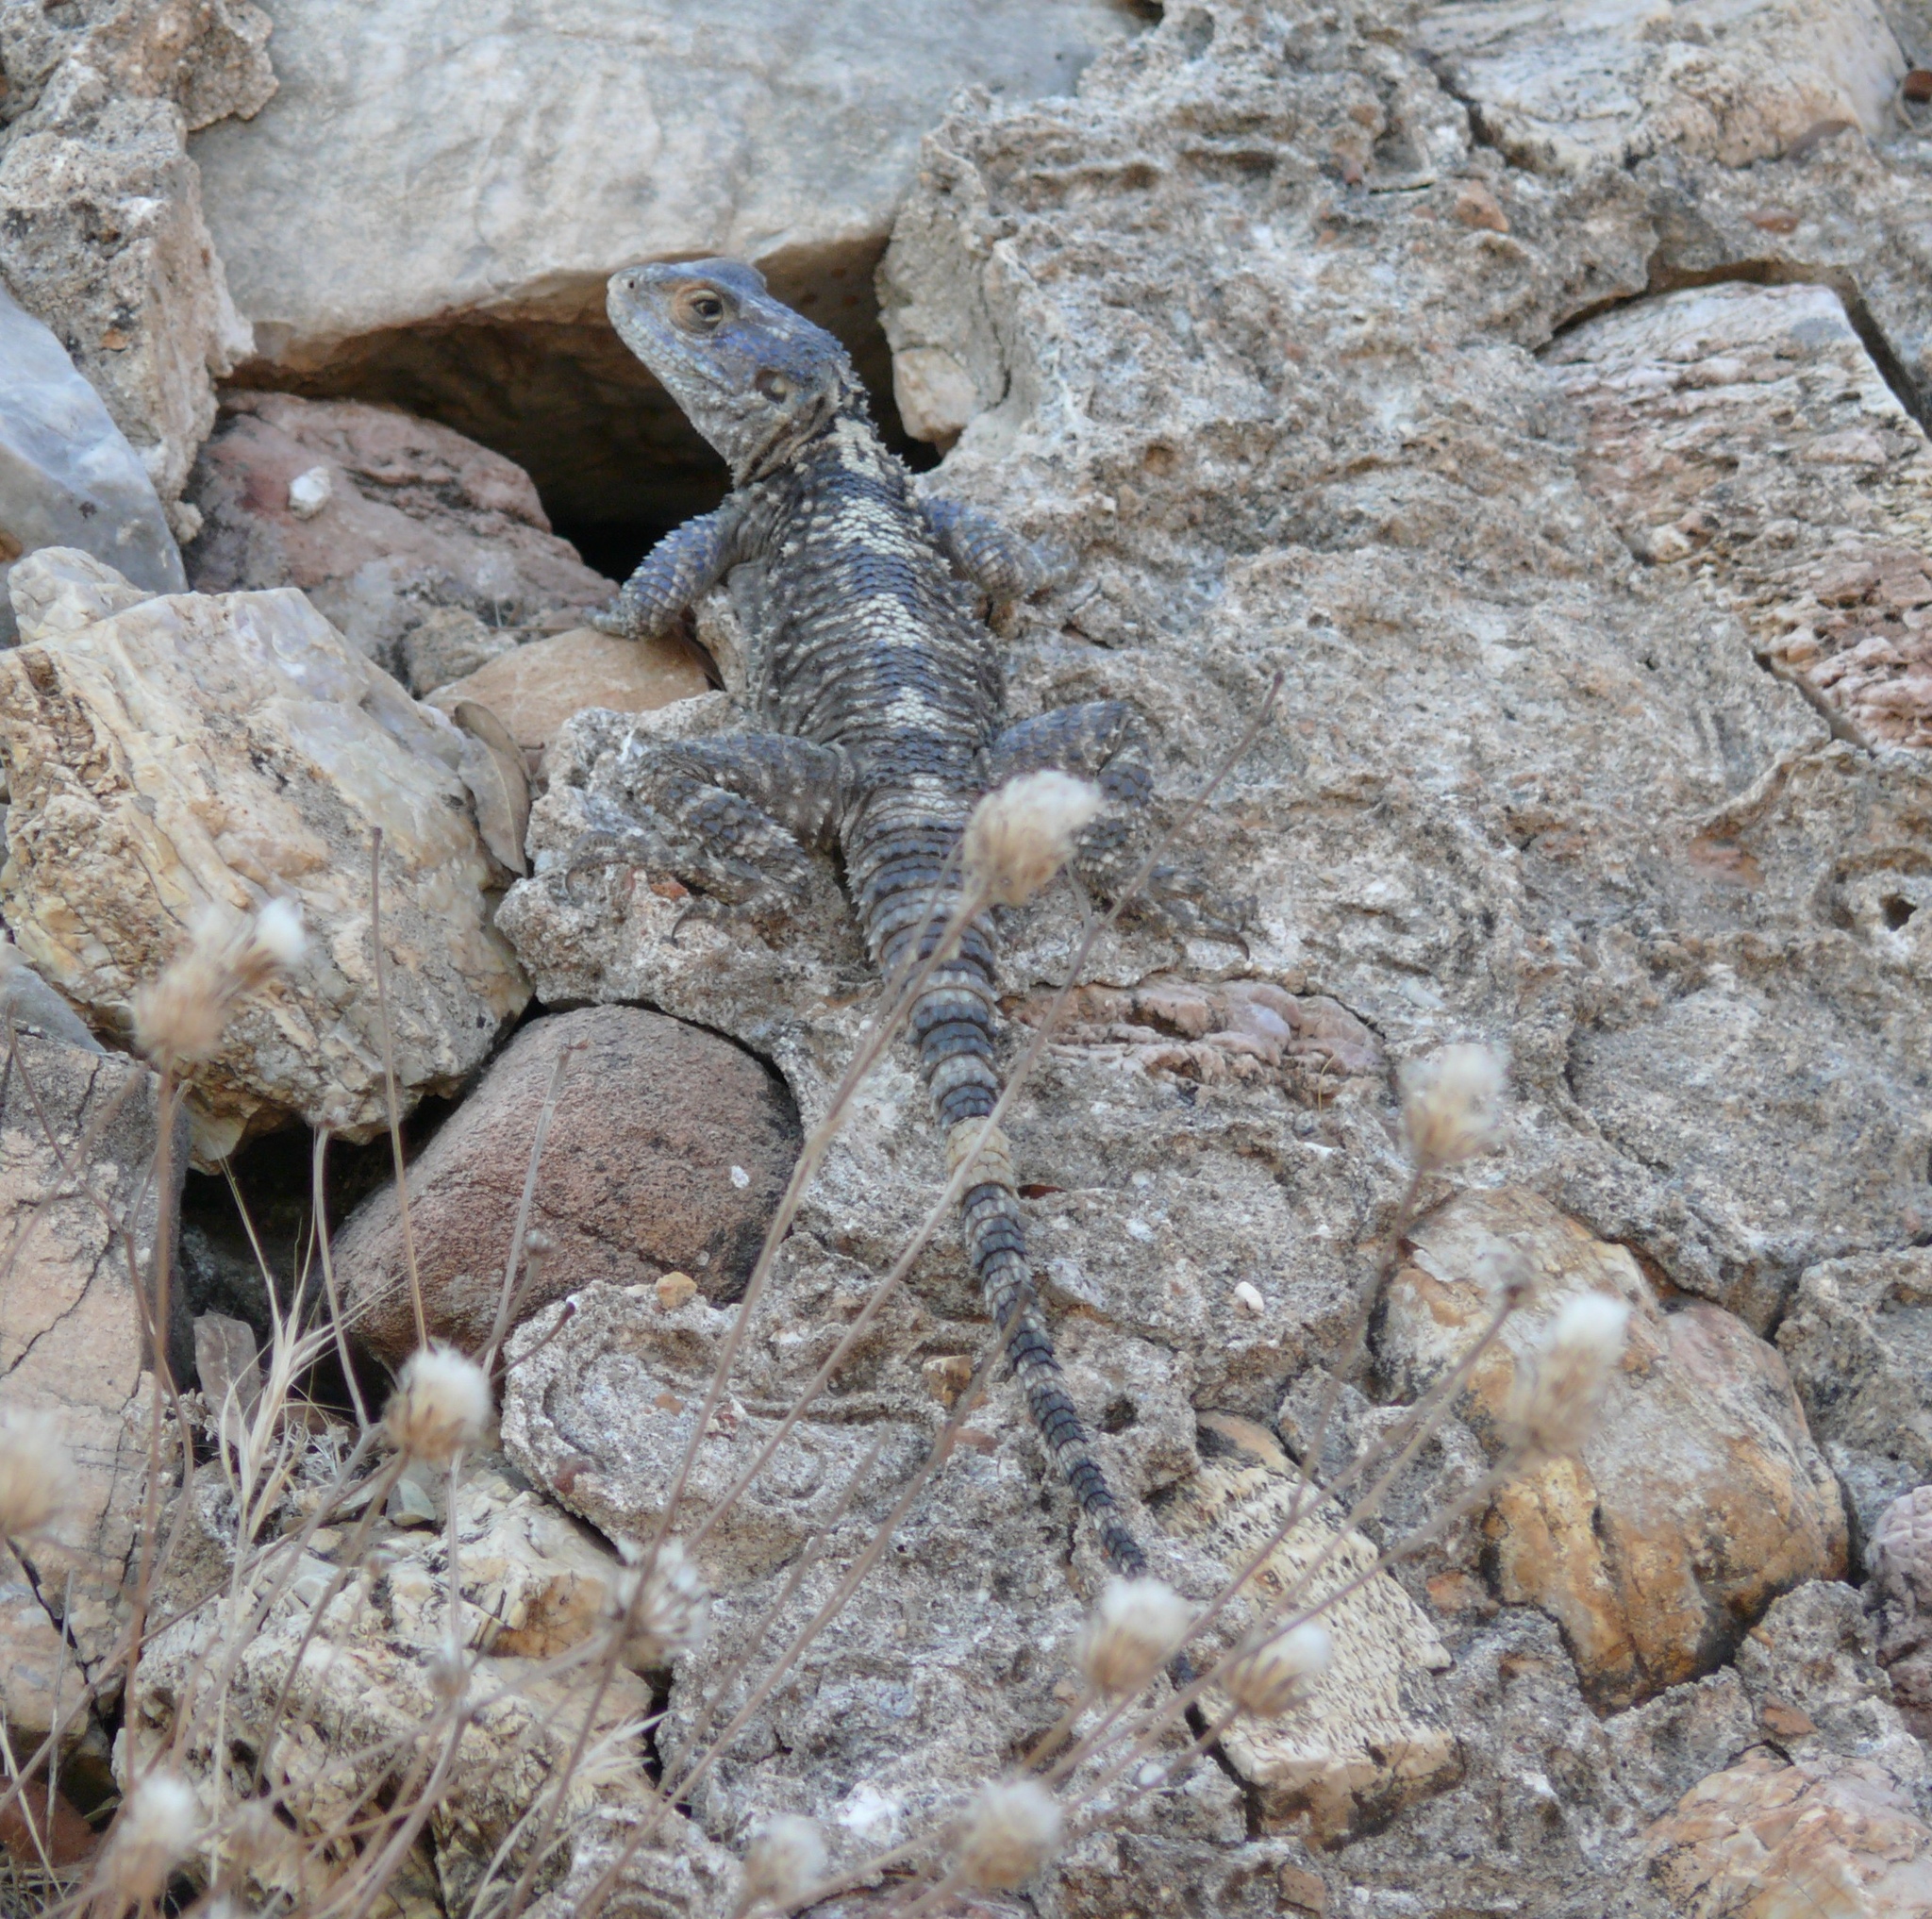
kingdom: Animalia
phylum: Chordata
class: Squamata
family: Agamidae
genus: Stellagama
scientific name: Stellagama stellio
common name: Starred agama
